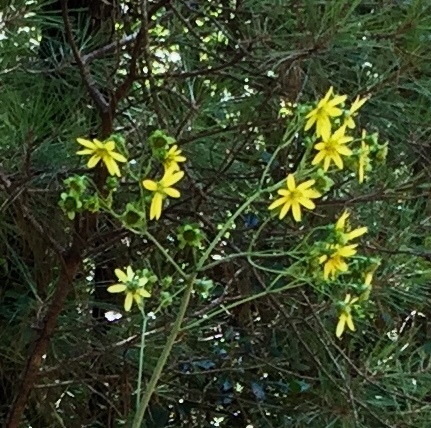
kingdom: Plantae
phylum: Tracheophyta
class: Magnoliopsida
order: Asterales
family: Asteraceae
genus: Silphium
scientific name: Silphium reniforme
